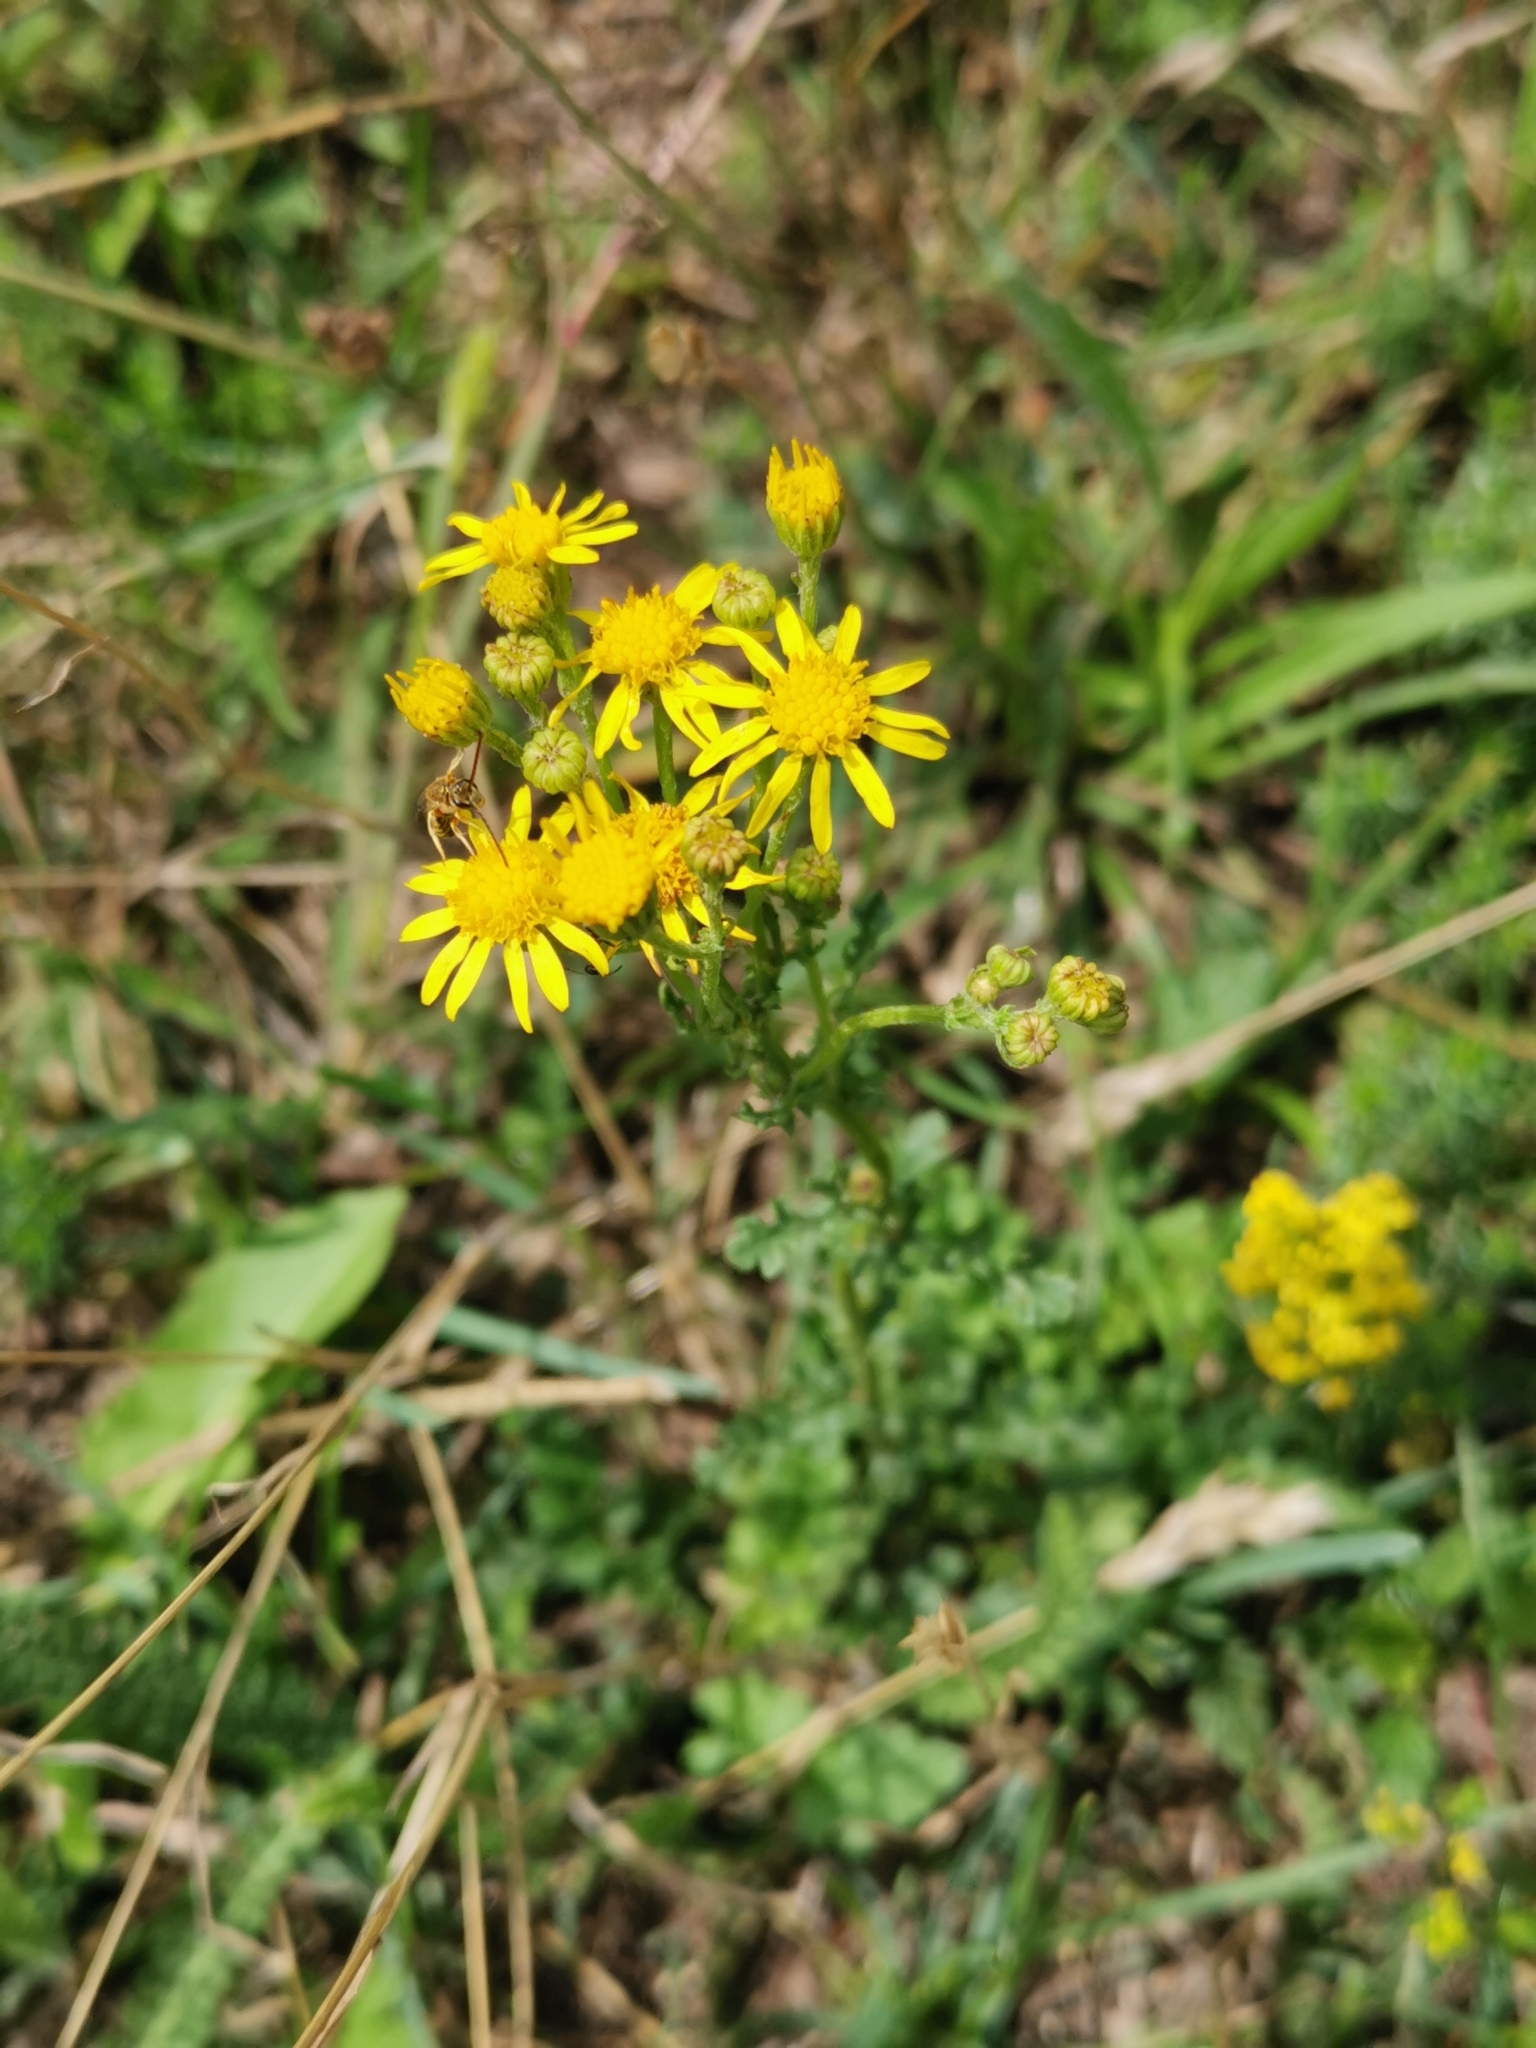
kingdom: Plantae
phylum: Tracheophyta
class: Magnoliopsida
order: Asterales
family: Asteraceae
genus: Jacobaea
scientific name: Jacobaea vulgaris
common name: Stinking willie
